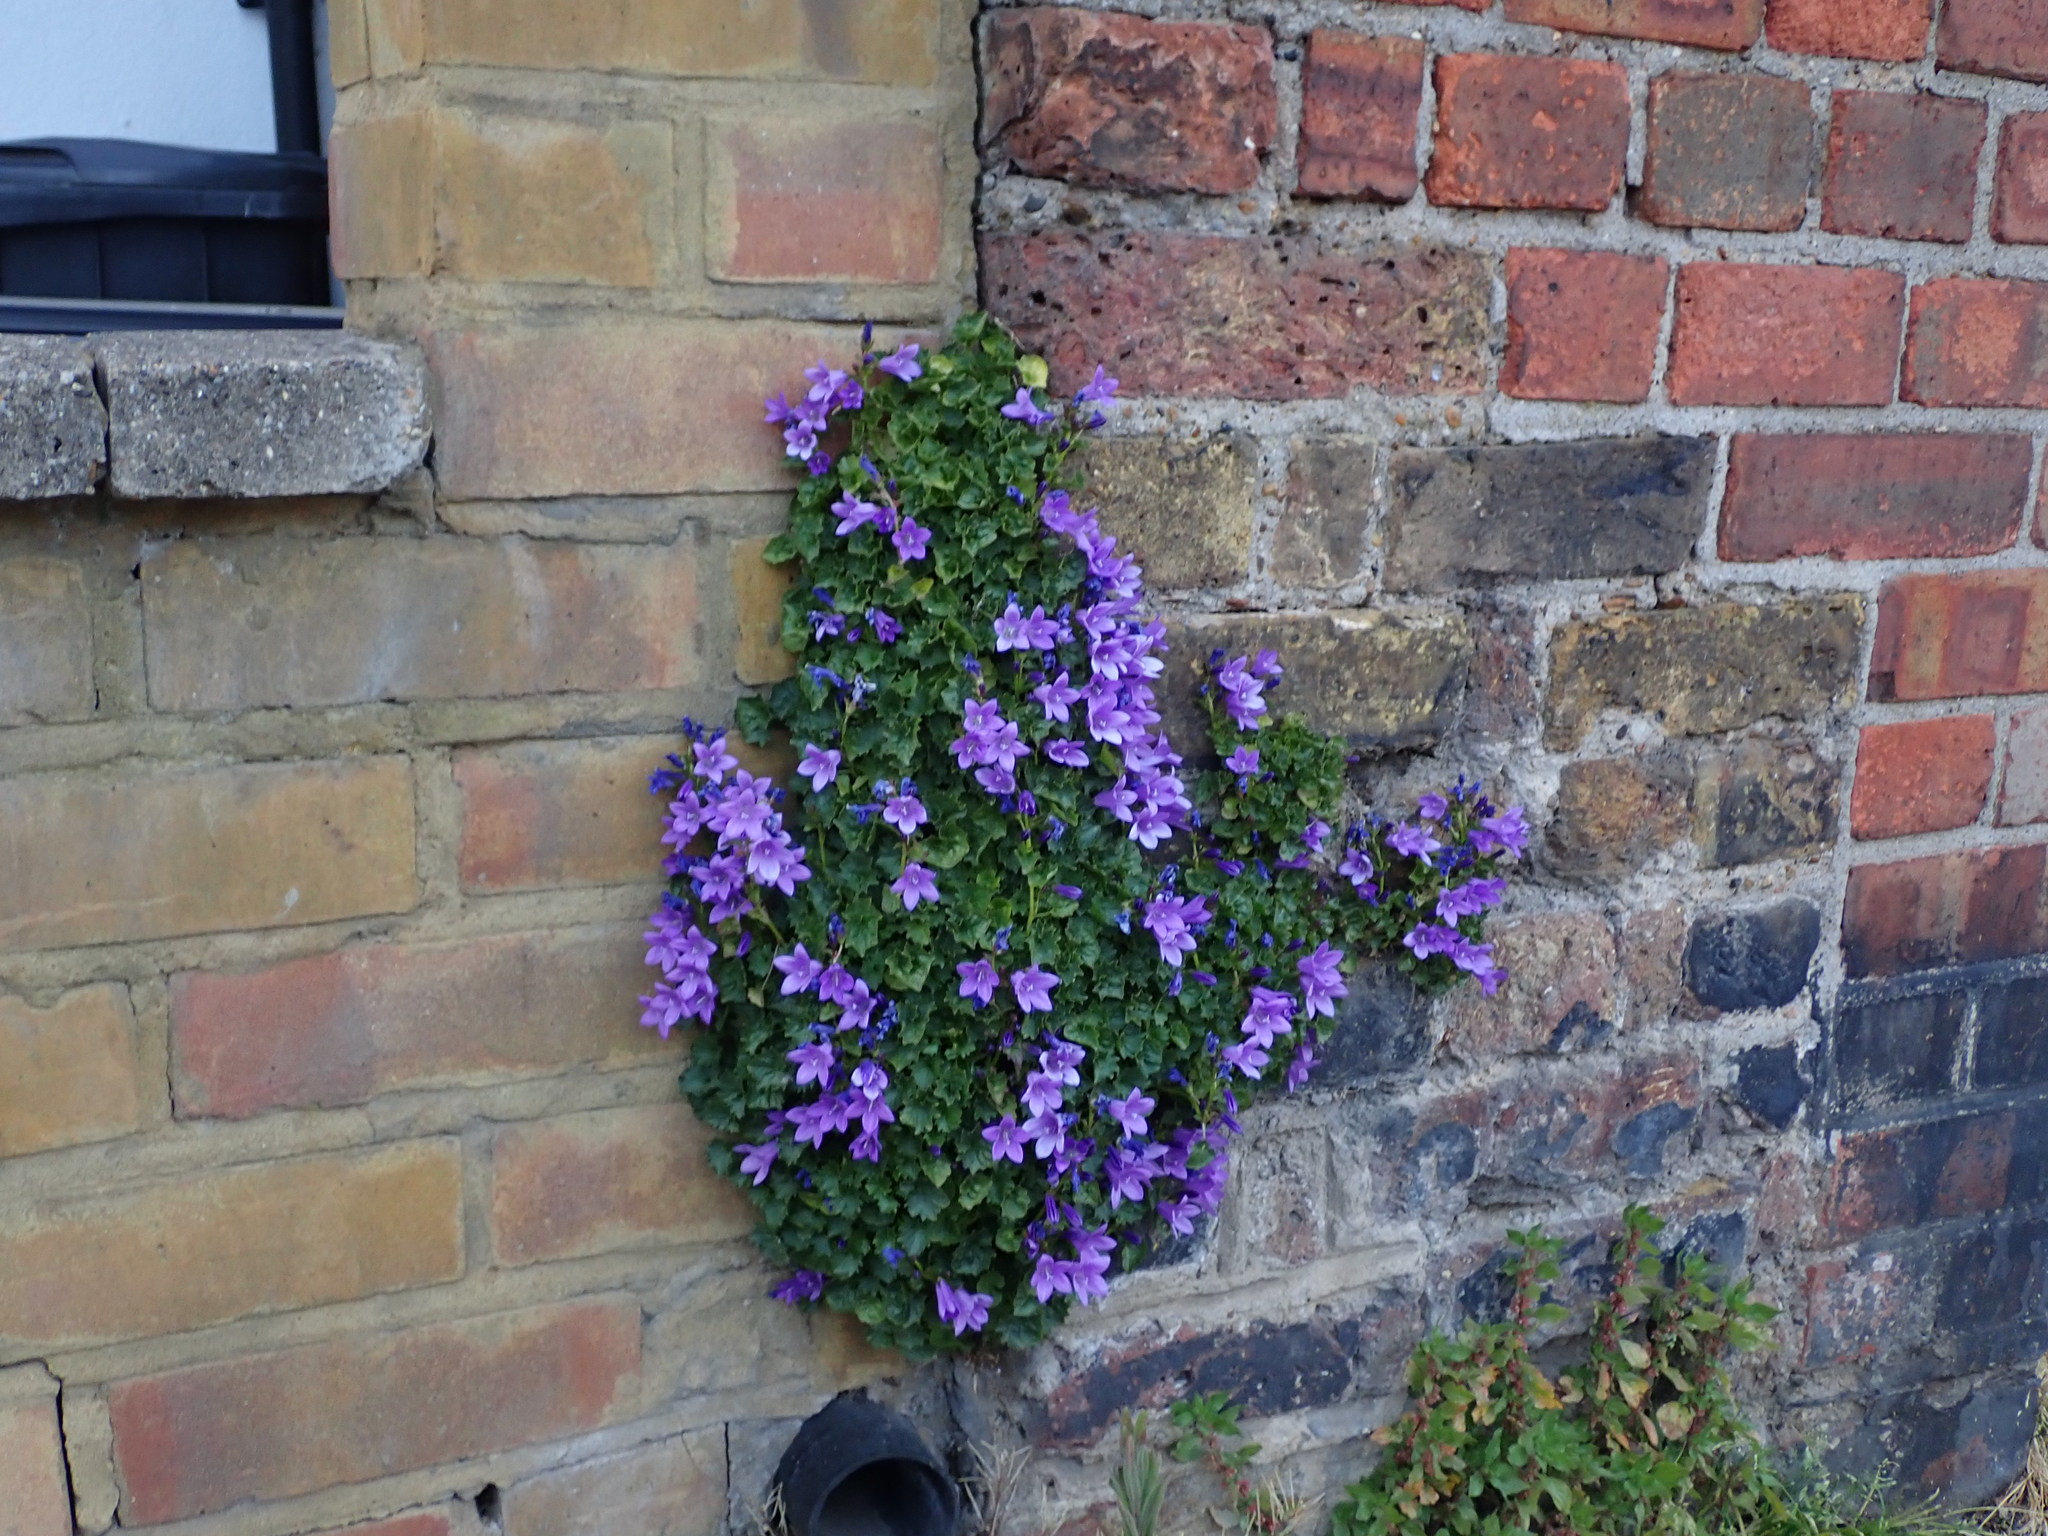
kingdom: Plantae
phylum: Tracheophyta
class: Magnoliopsida
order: Asterales
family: Campanulaceae
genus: Campanula
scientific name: Campanula portenschlagiana
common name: Adria bellflower
